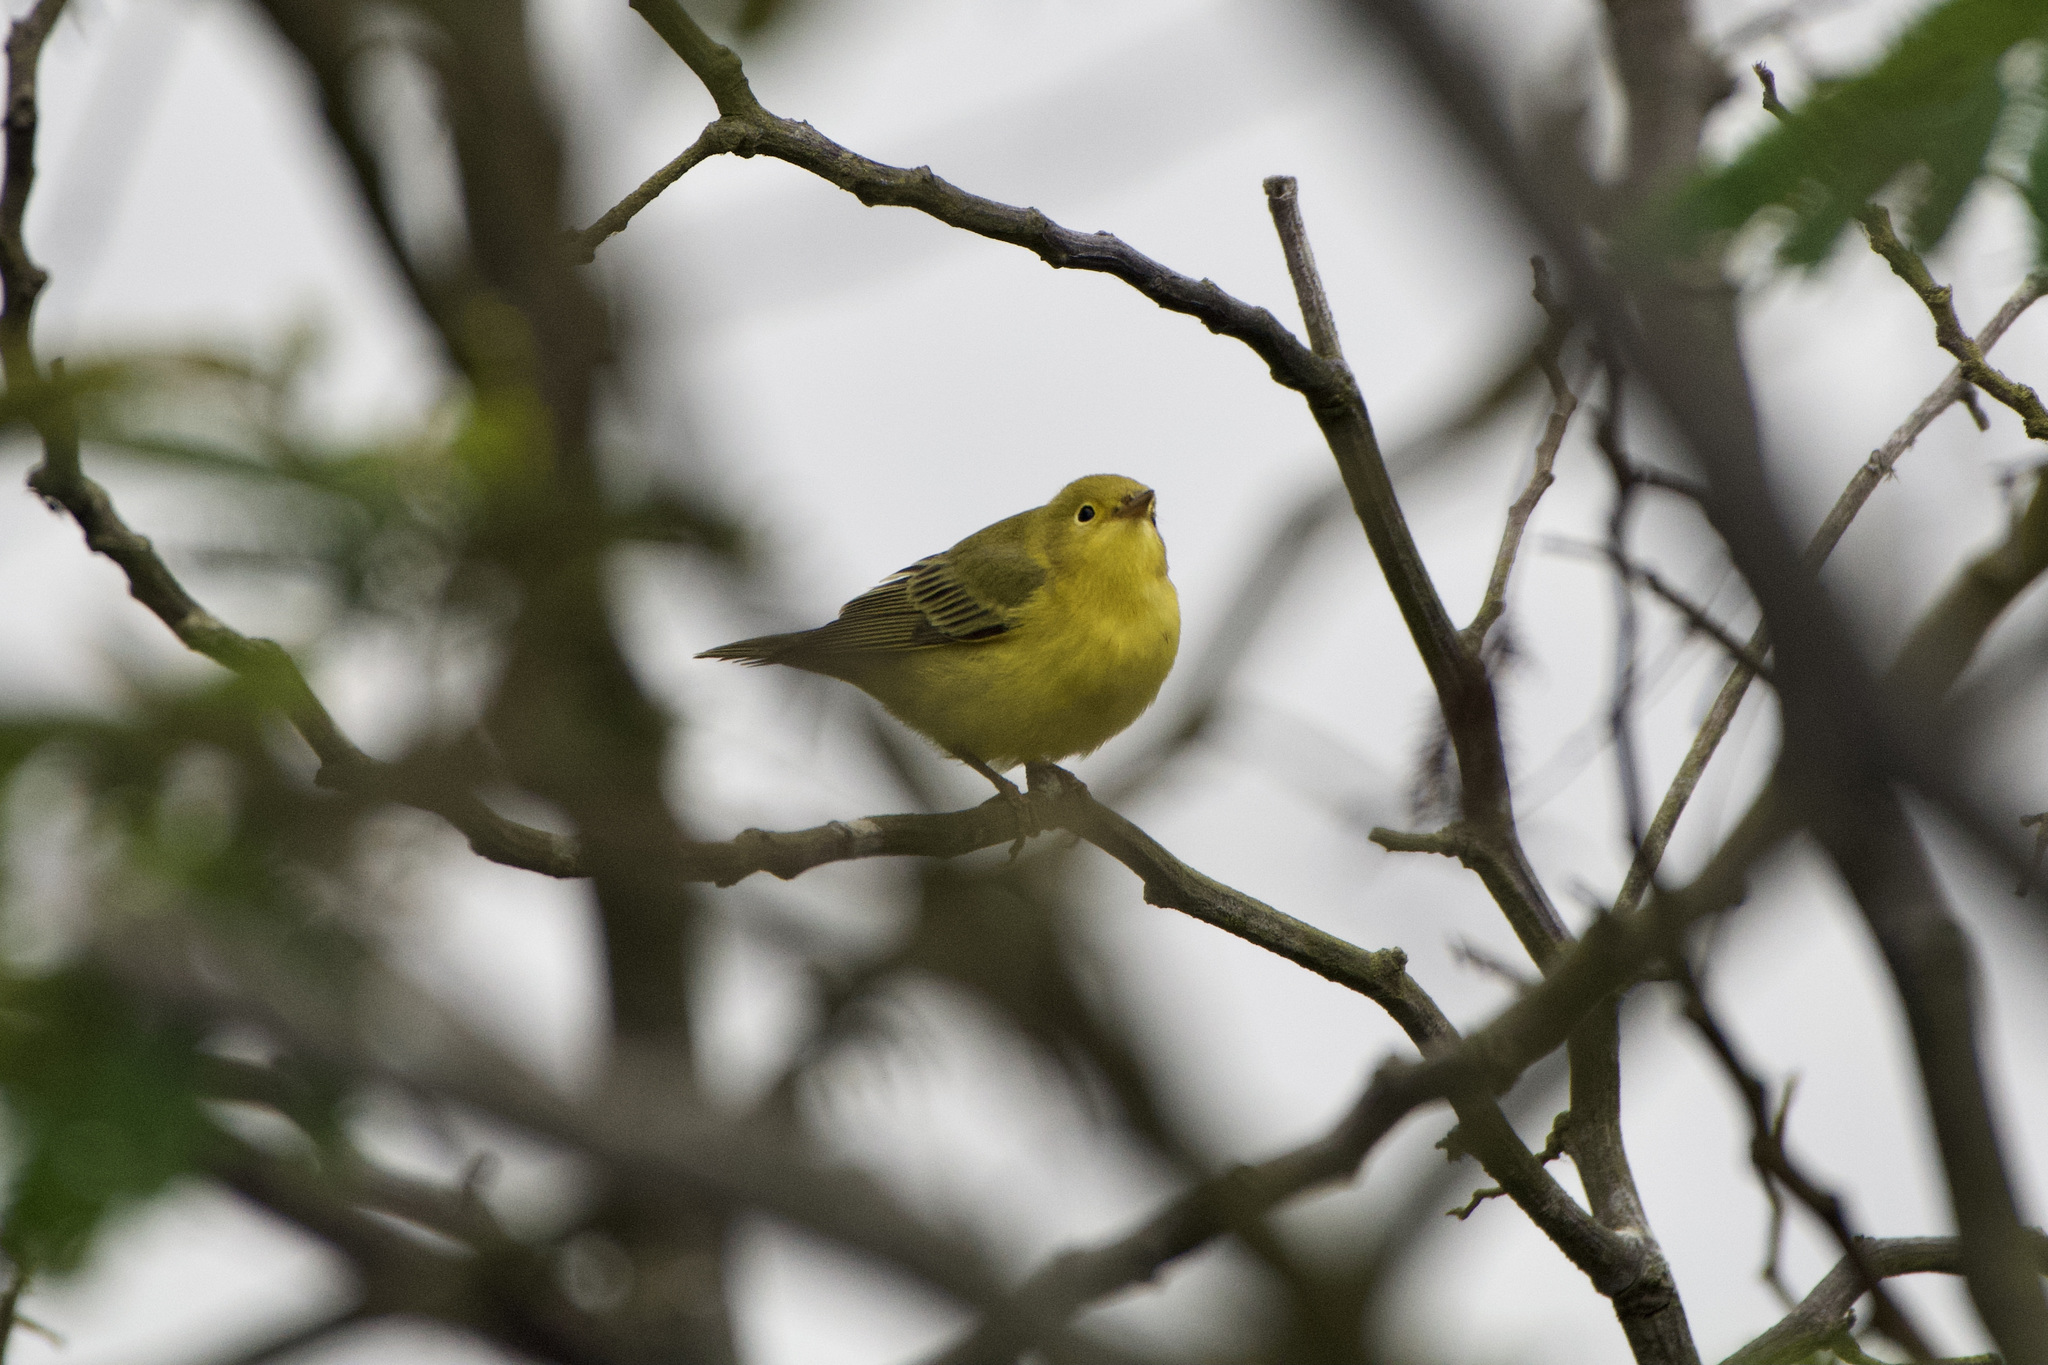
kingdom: Animalia
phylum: Chordata
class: Aves
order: Passeriformes
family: Parulidae
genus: Setophaga
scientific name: Setophaga petechia
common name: Yellow warbler
